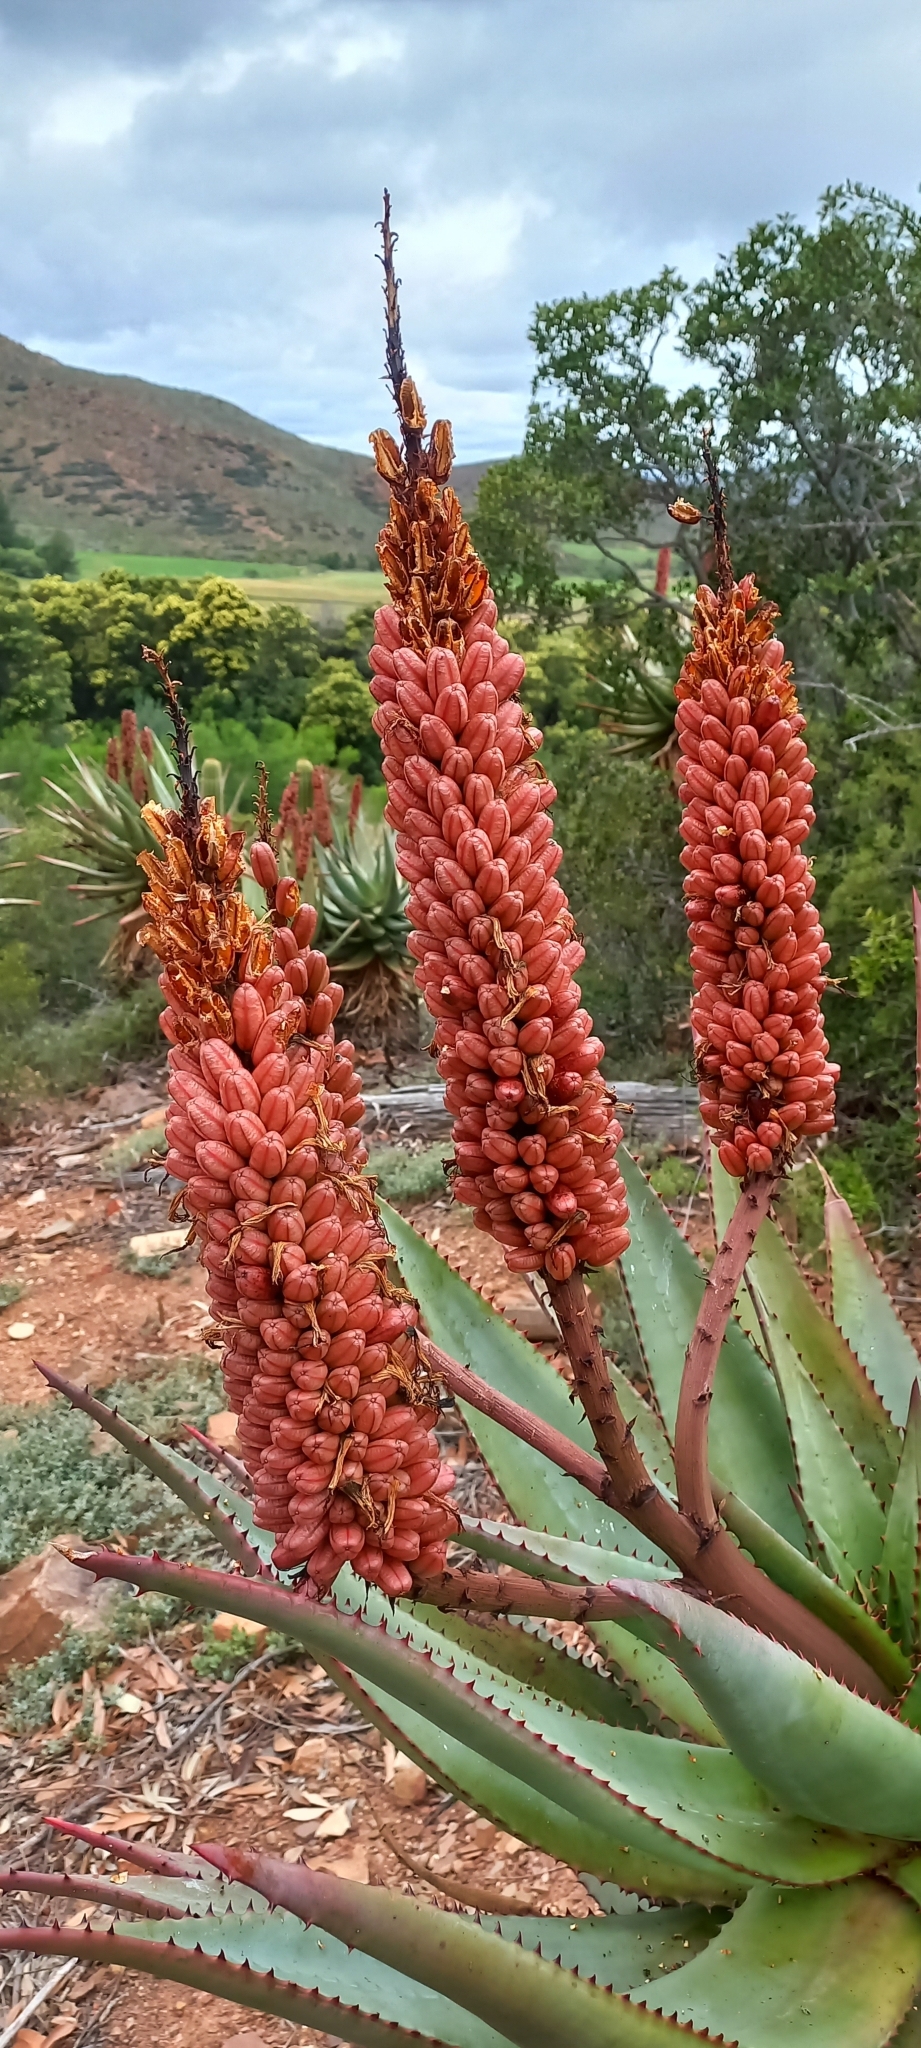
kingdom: Plantae
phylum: Tracheophyta
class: Liliopsida
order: Asparagales
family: Asphodelaceae
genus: Aloe
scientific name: Aloe ferox
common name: Bitter aloe
